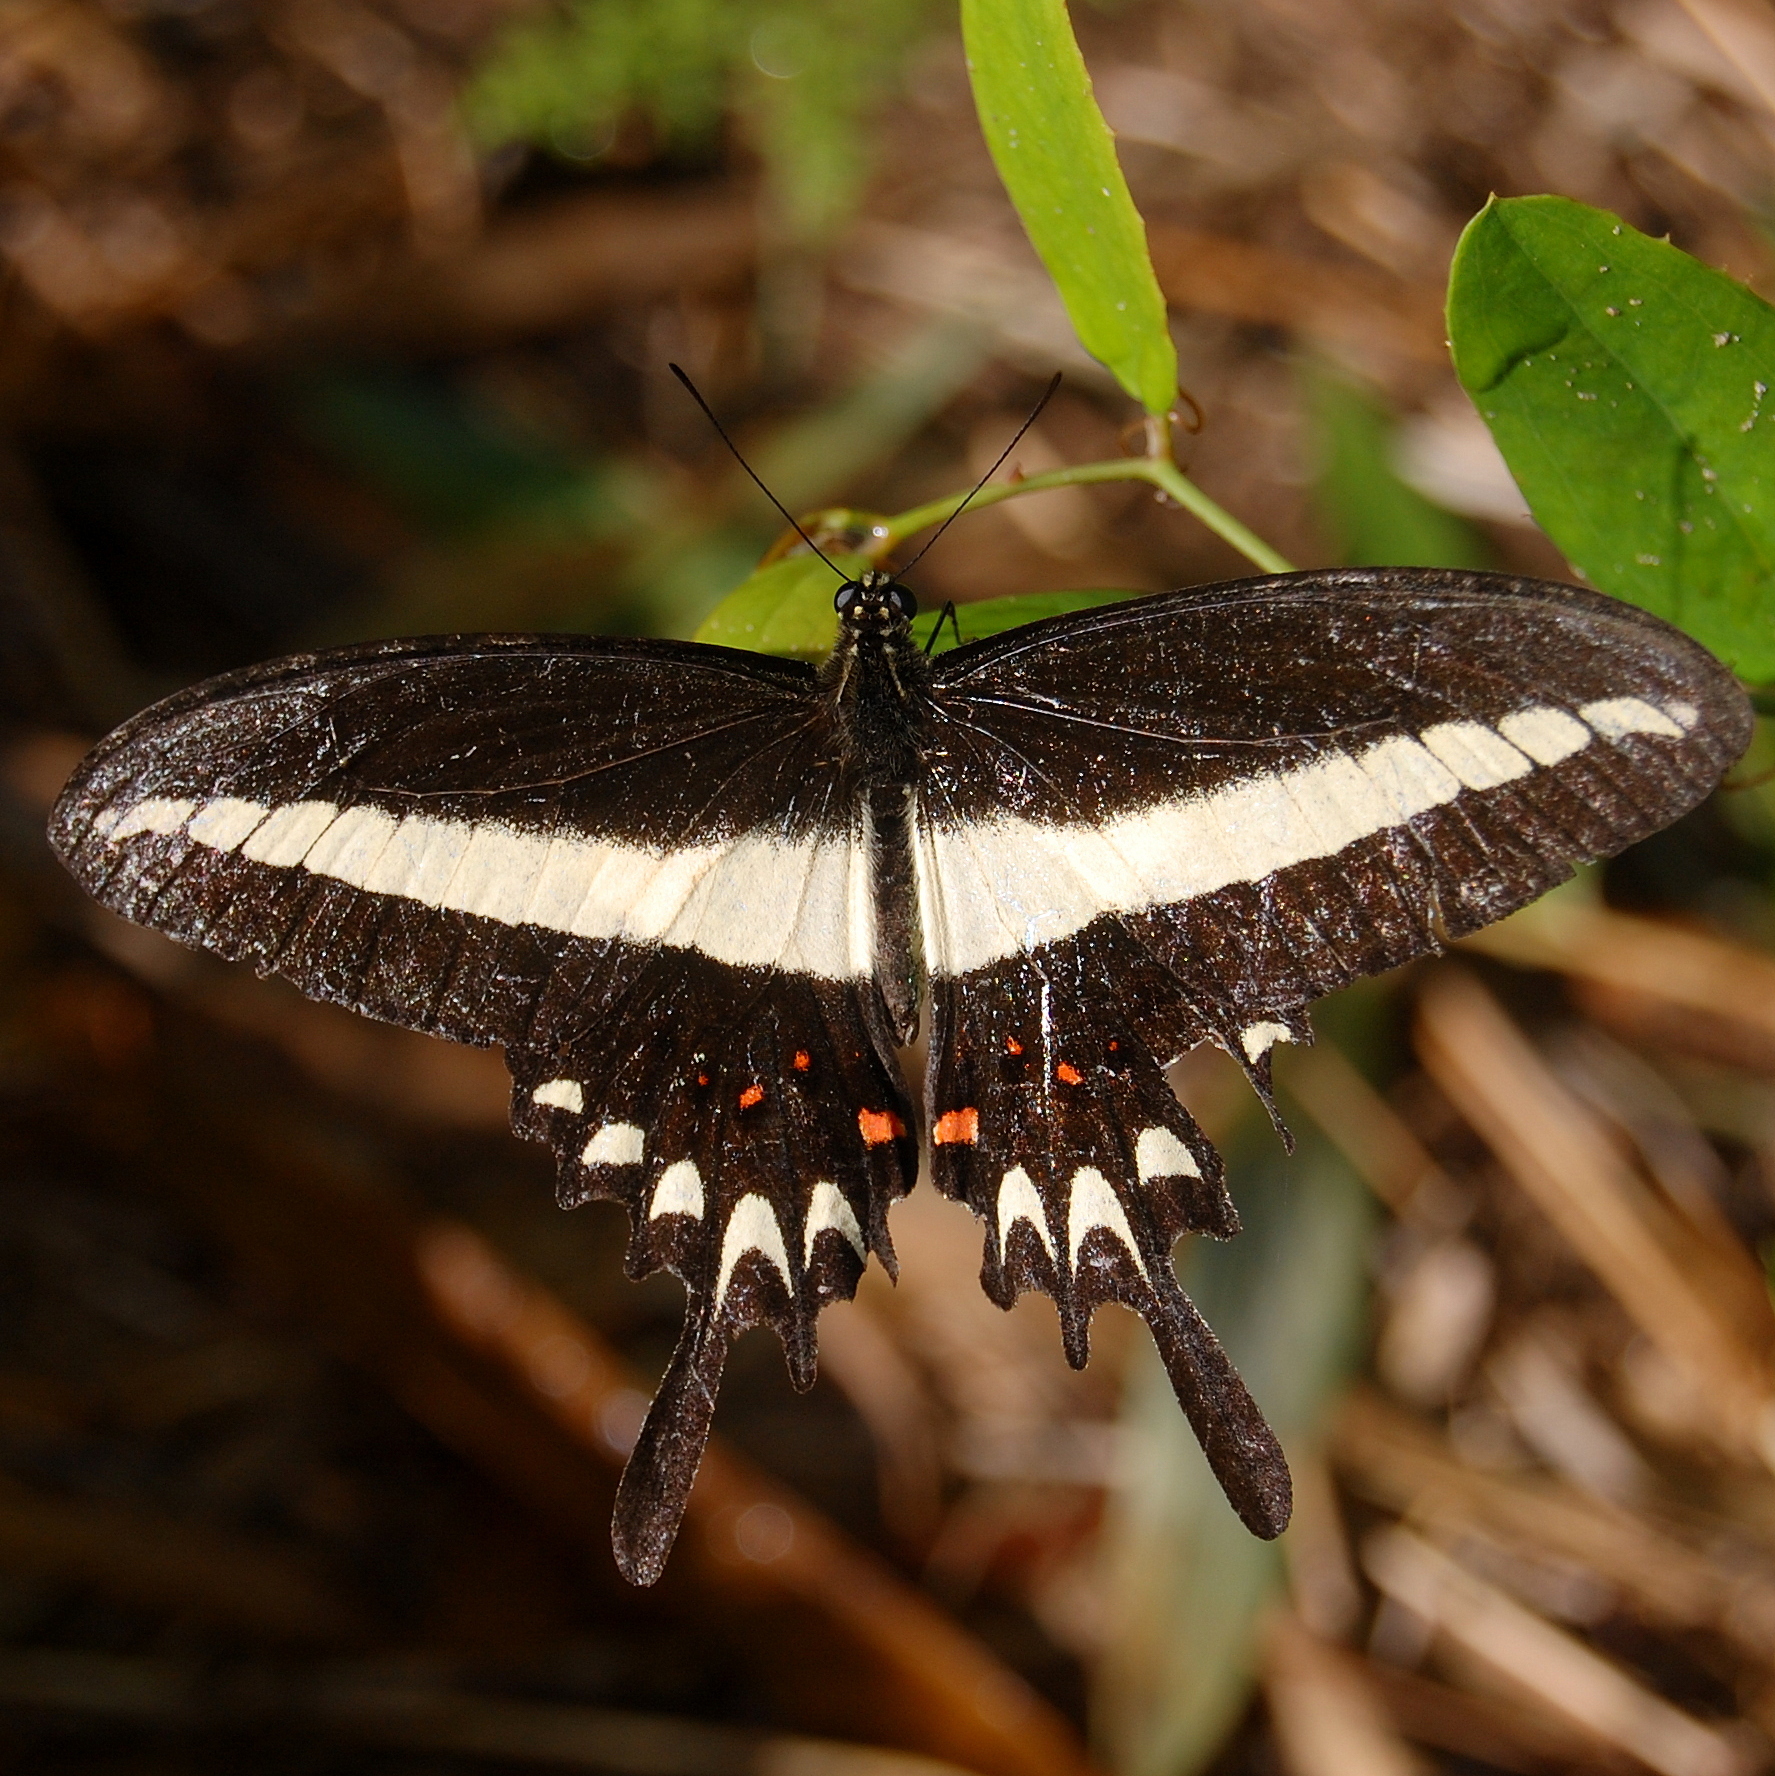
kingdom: Animalia
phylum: Arthropoda
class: Insecta
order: Lepidoptera
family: Papilionidae
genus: Heraclides
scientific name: Heraclides hectorides
